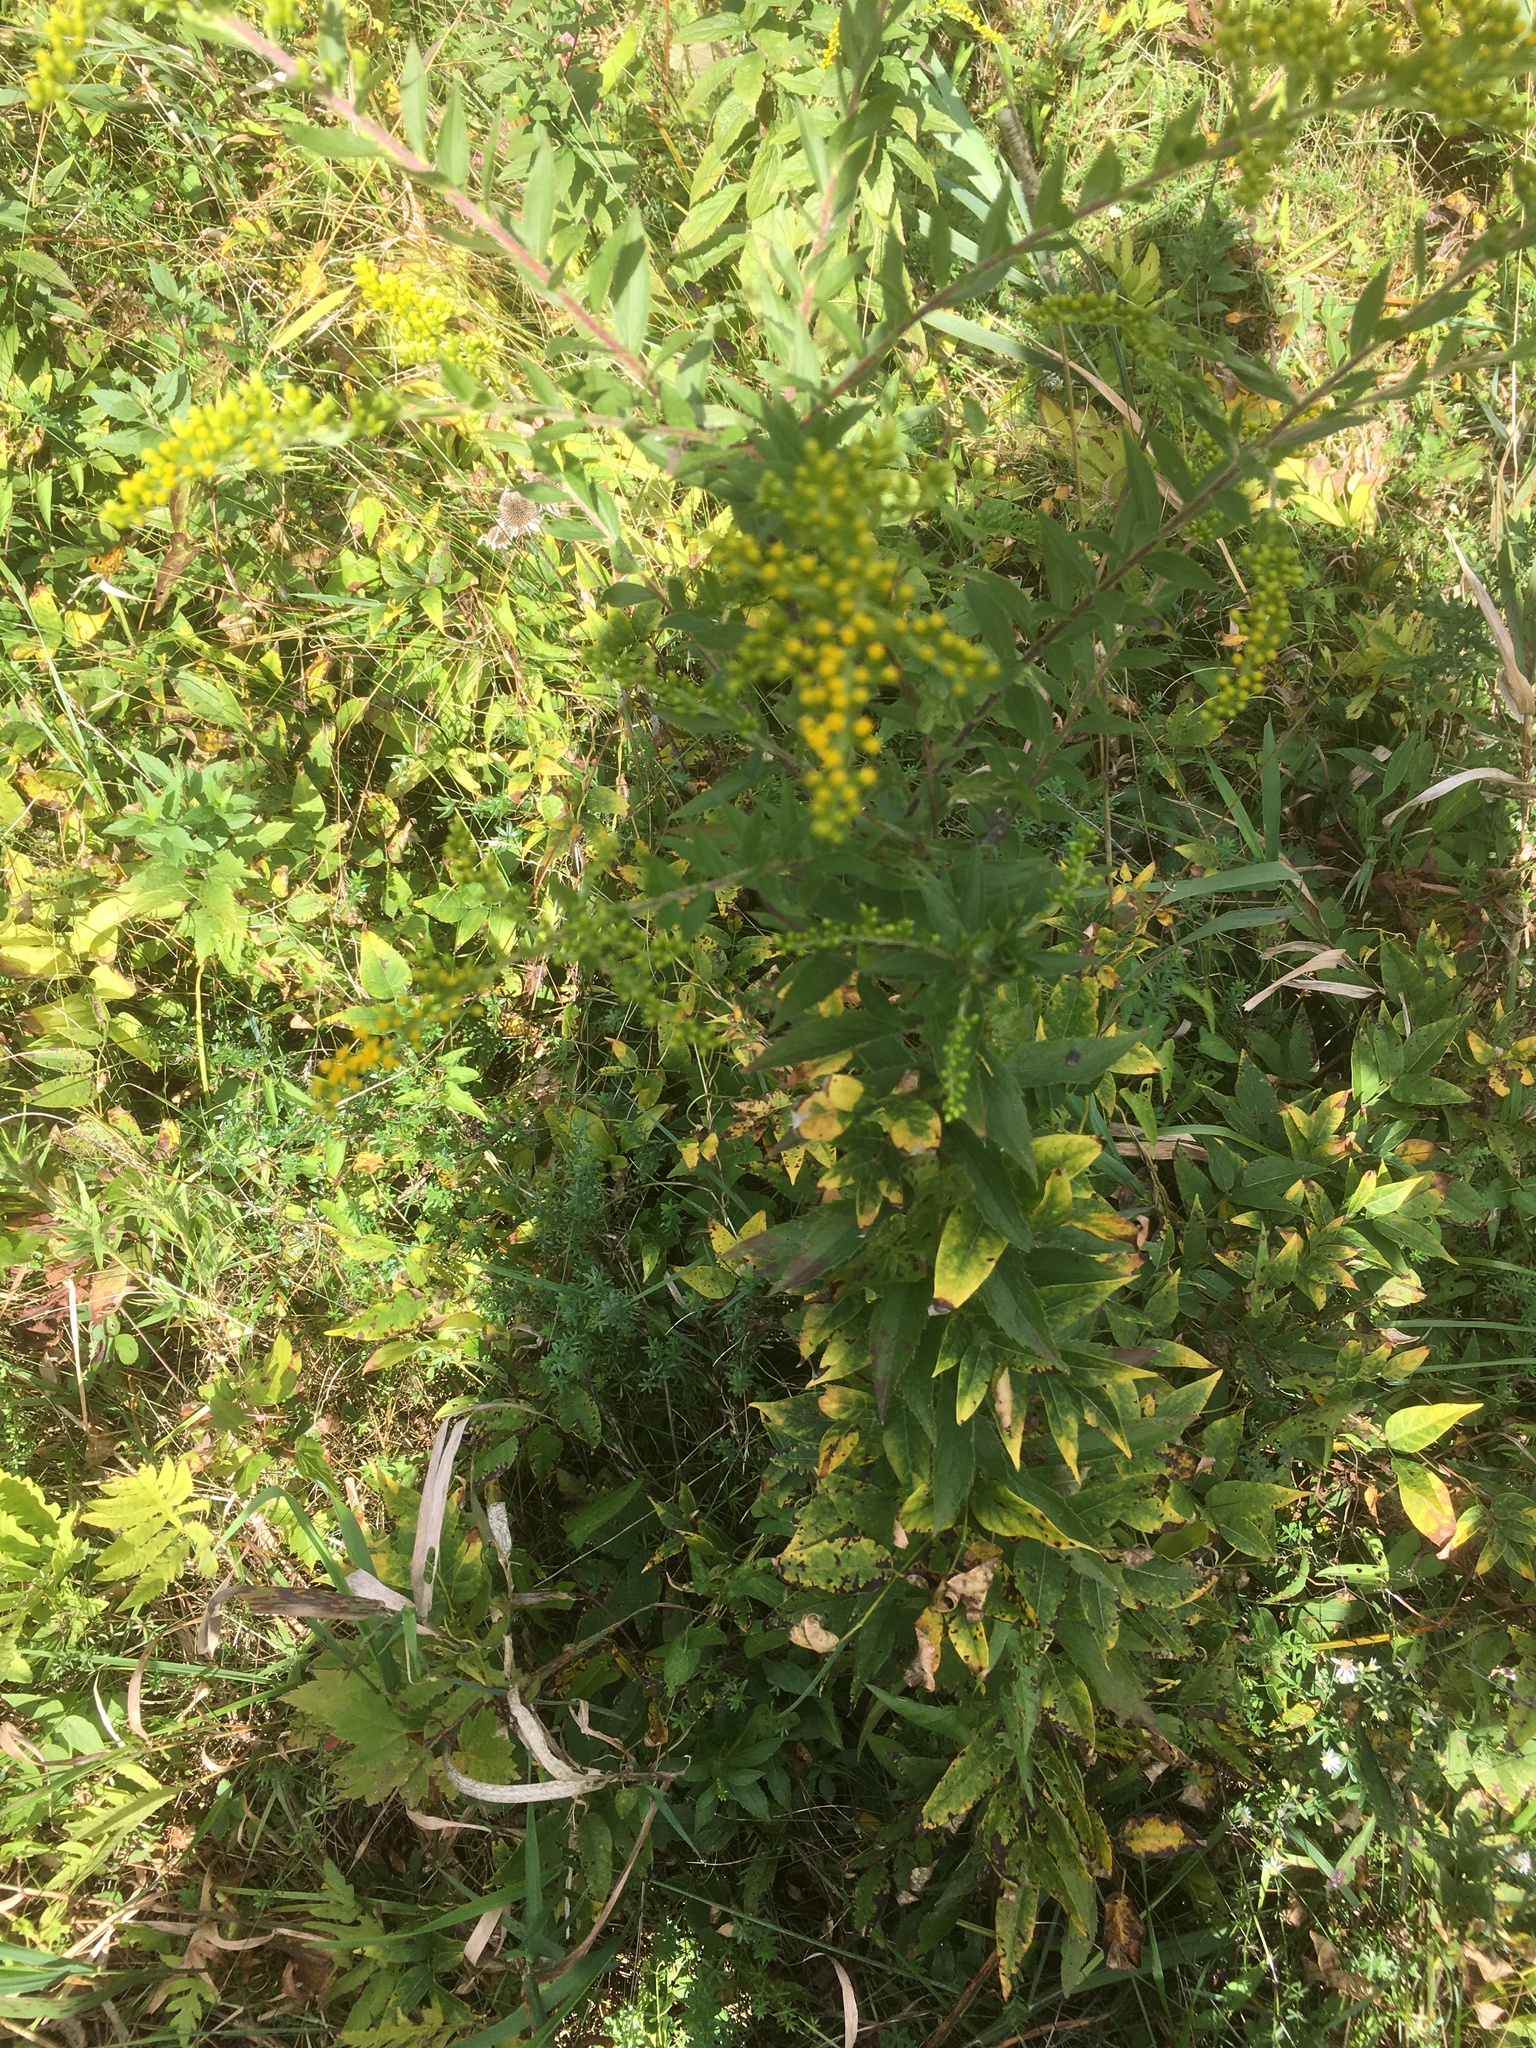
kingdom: Plantae
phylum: Tracheophyta
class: Magnoliopsida
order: Asterales
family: Asteraceae
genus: Solidago
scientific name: Solidago rugosa
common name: Rough-stemmed goldenrod
